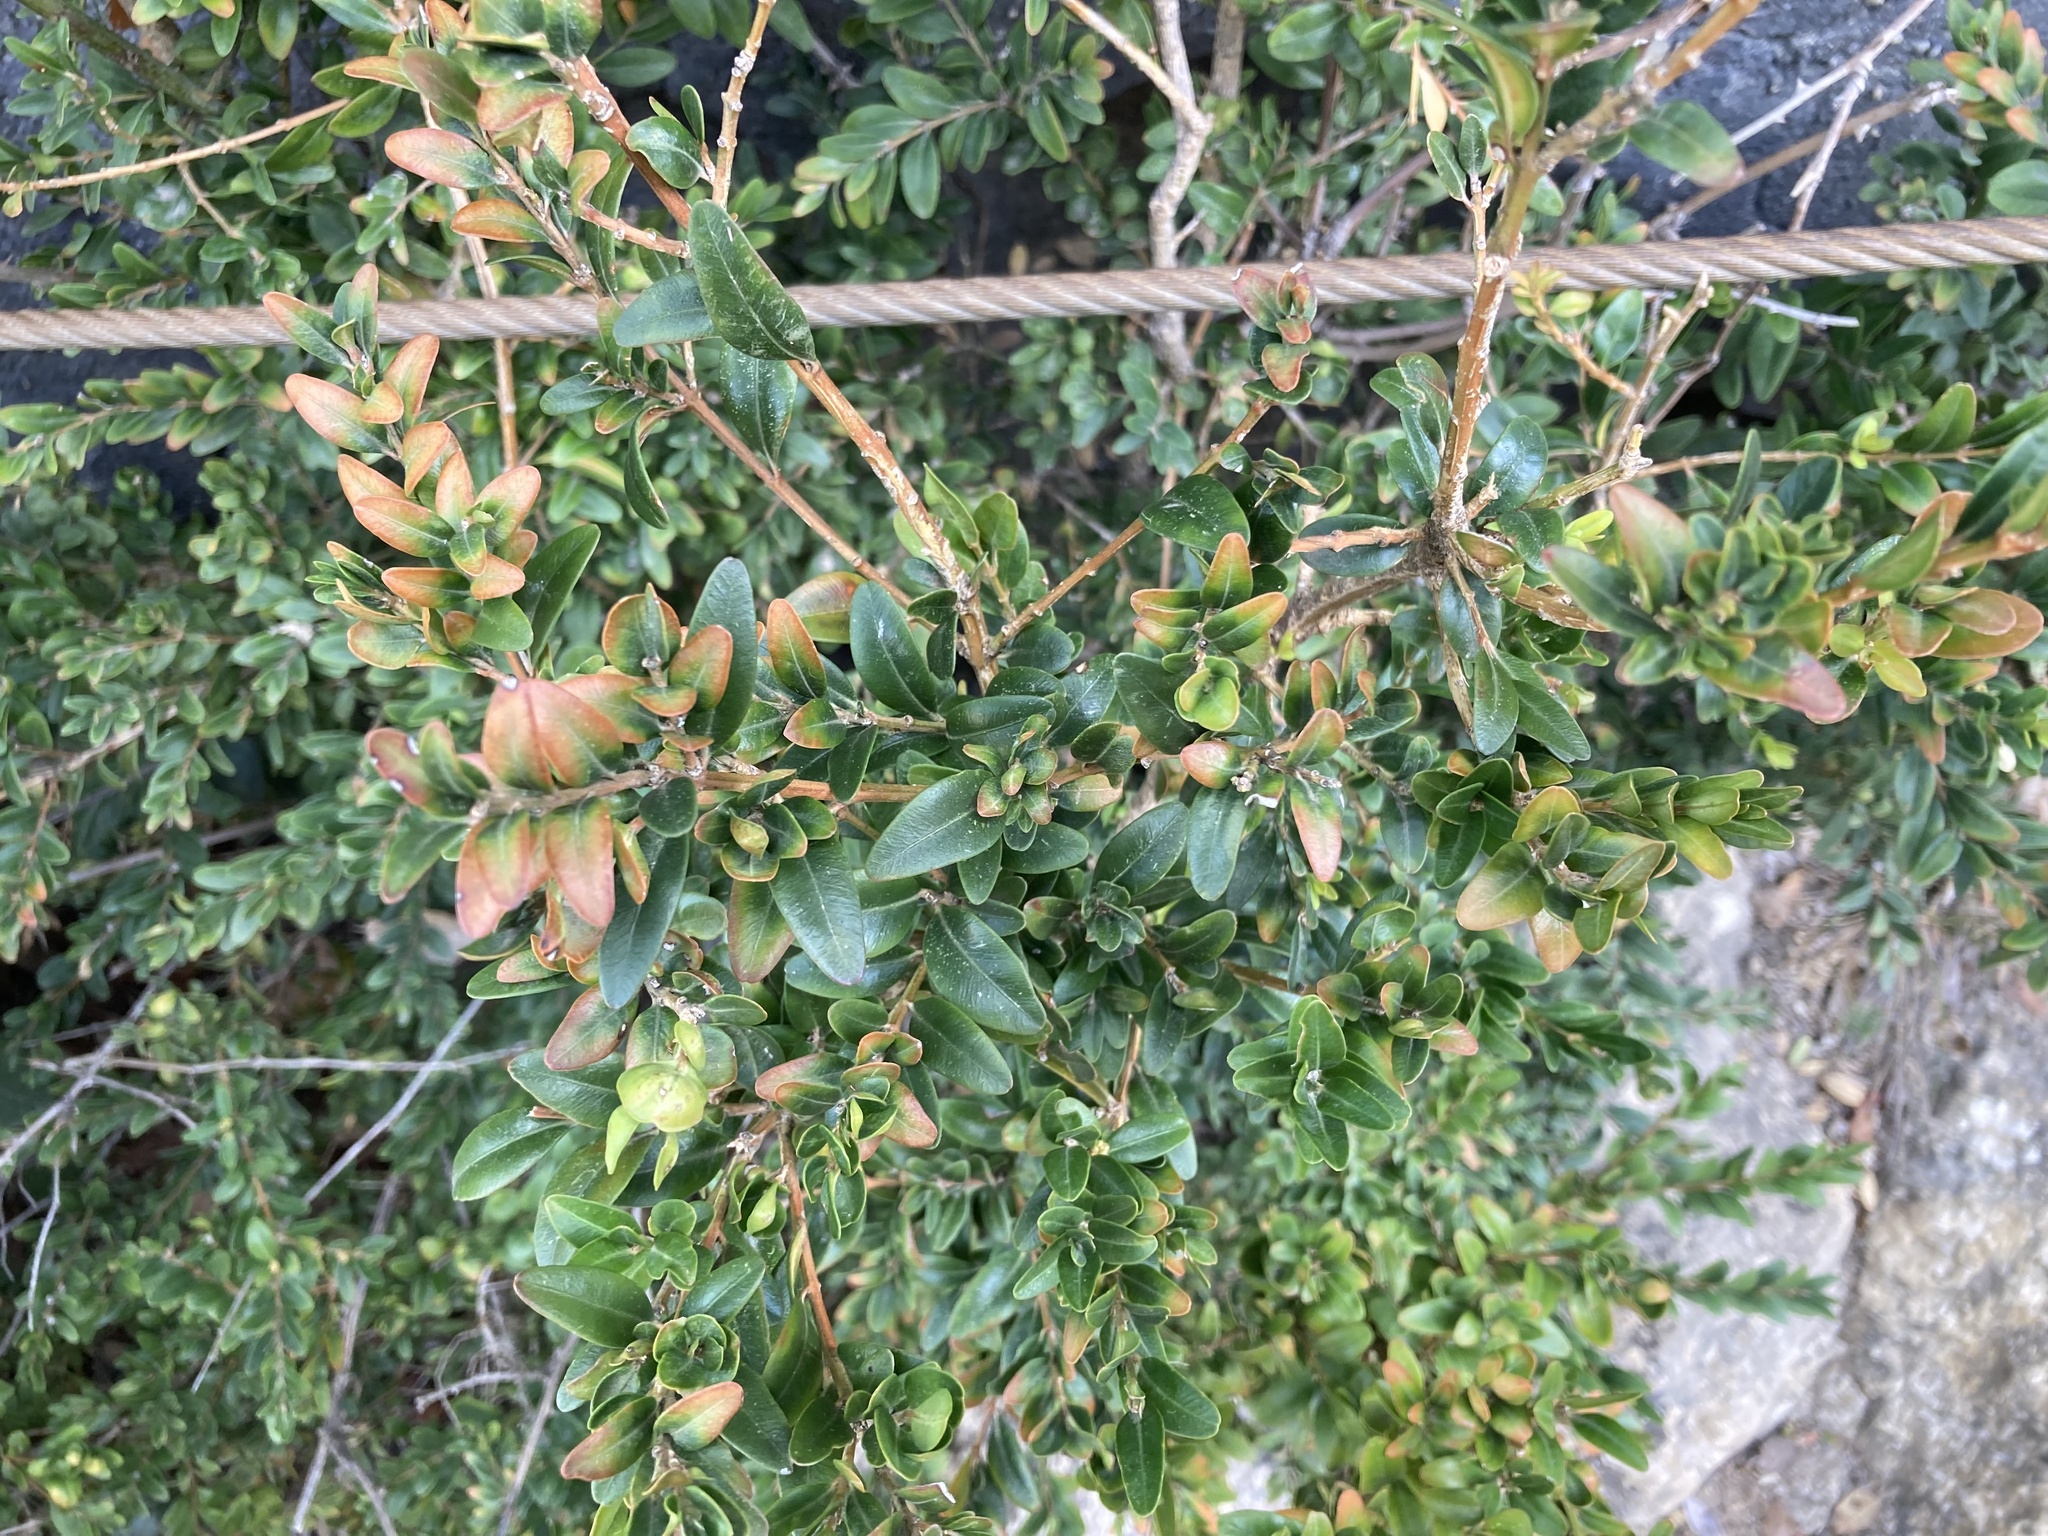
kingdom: Plantae
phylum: Tracheophyta
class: Magnoliopsida
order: Buxales
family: Buxaceae
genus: Buxus
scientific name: Buxus sempervirens
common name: Box
